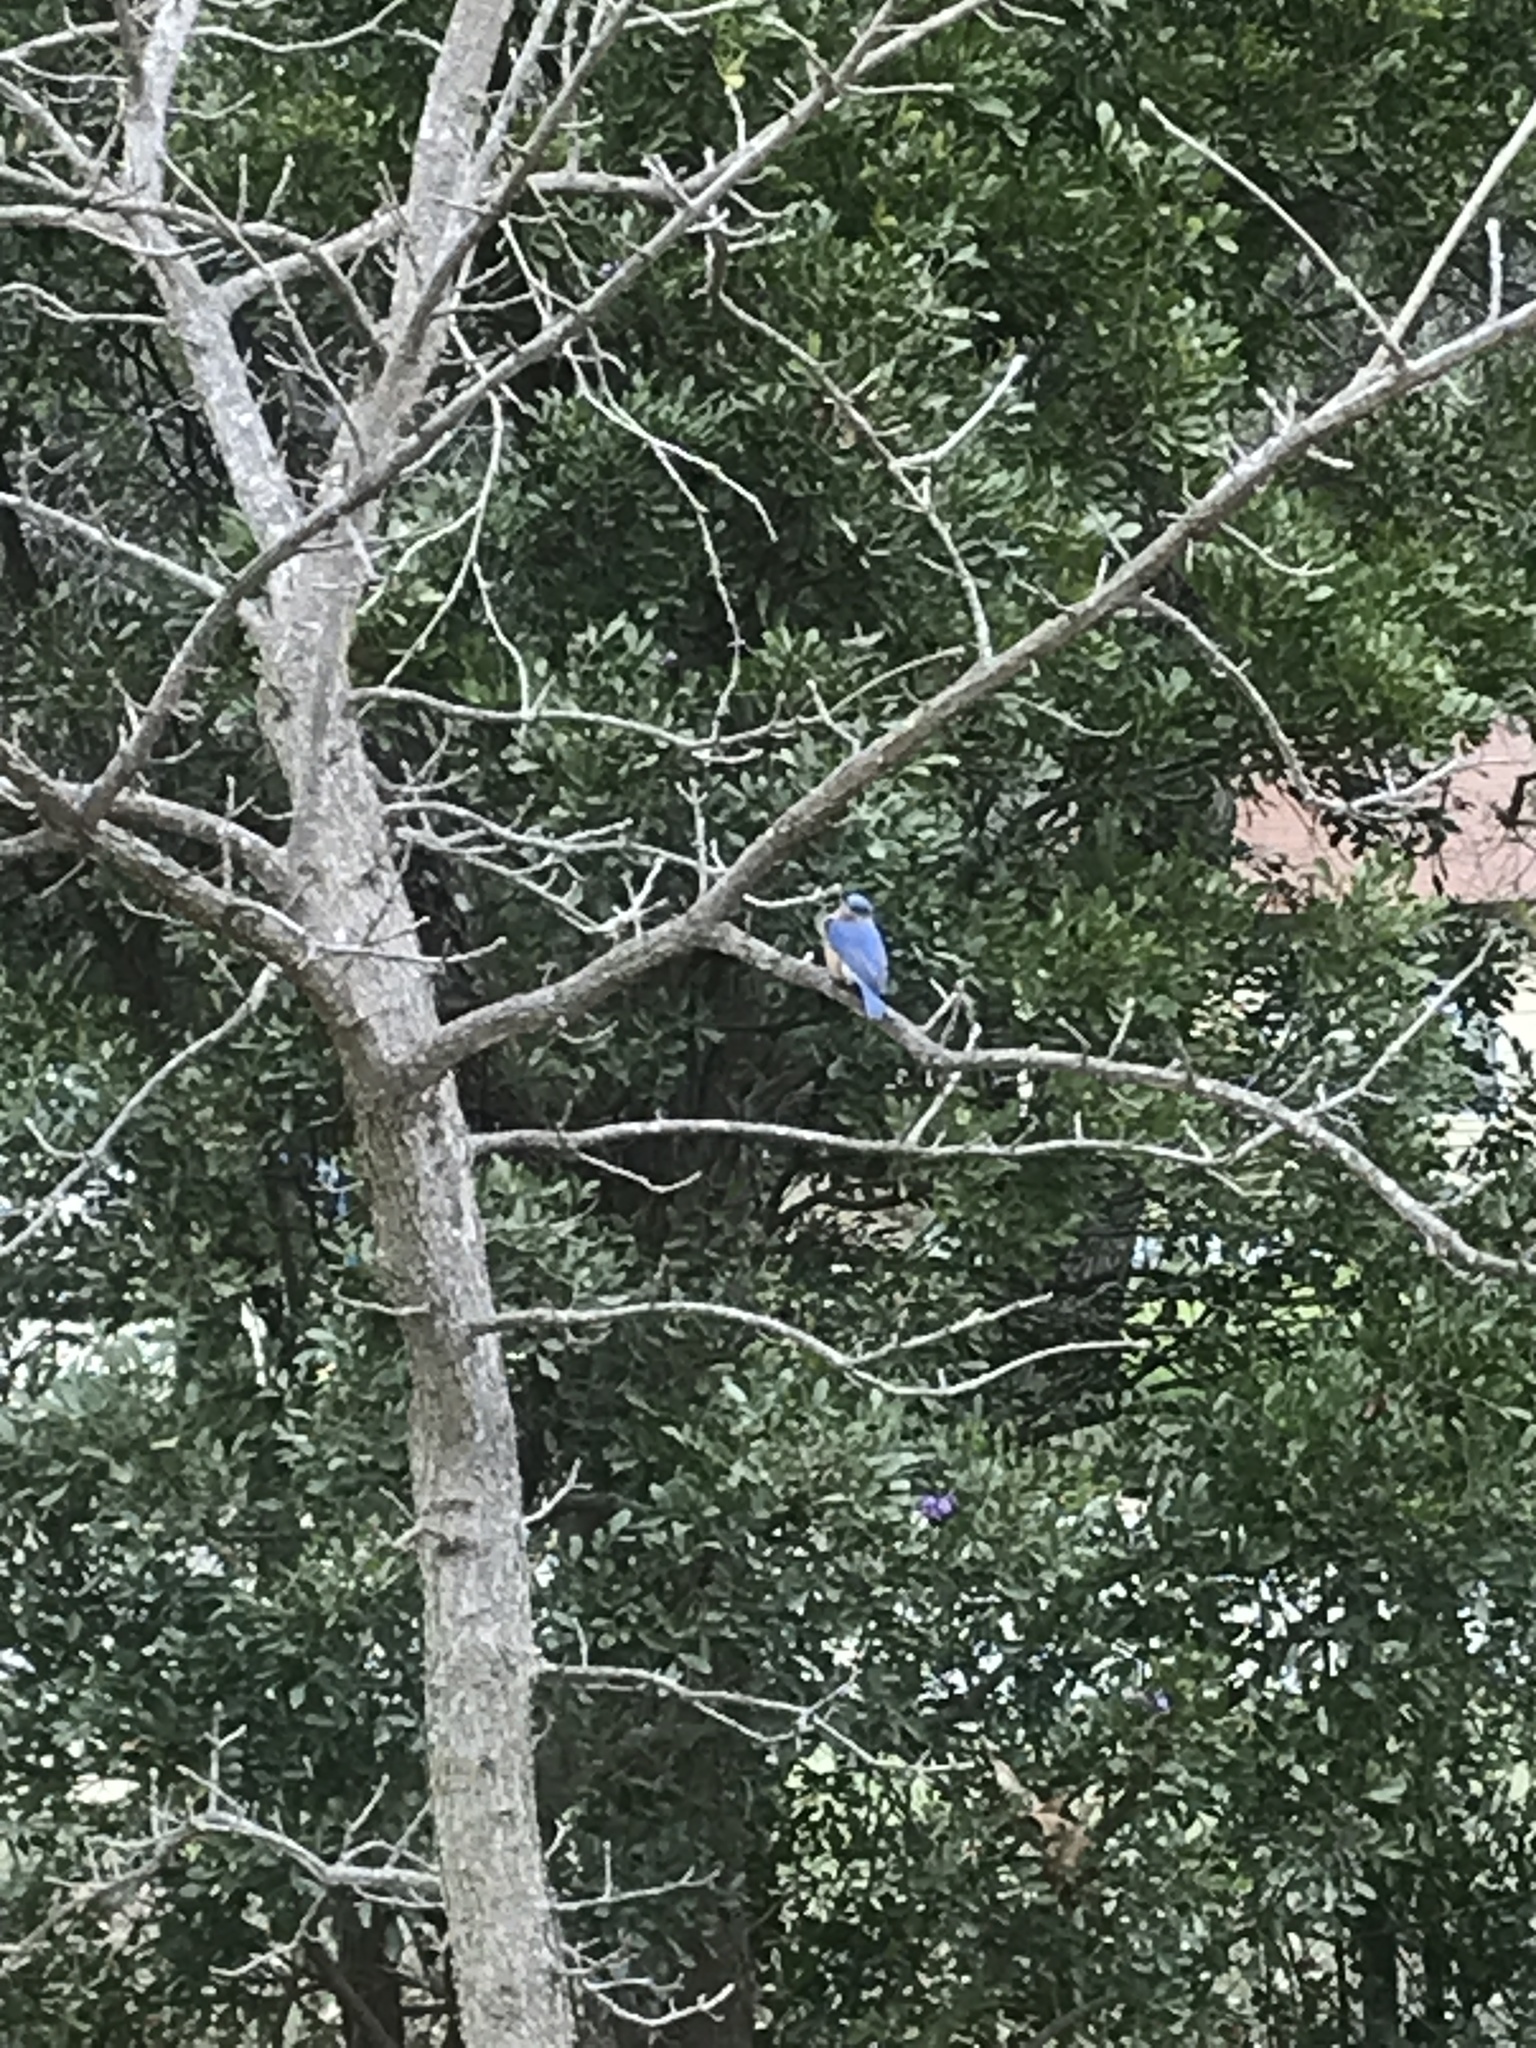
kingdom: Animalia
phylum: Chordata
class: Aves
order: Passeriformes
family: Turdidae
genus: Sialia
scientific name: Sialia sialis
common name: Eastern bluebird
